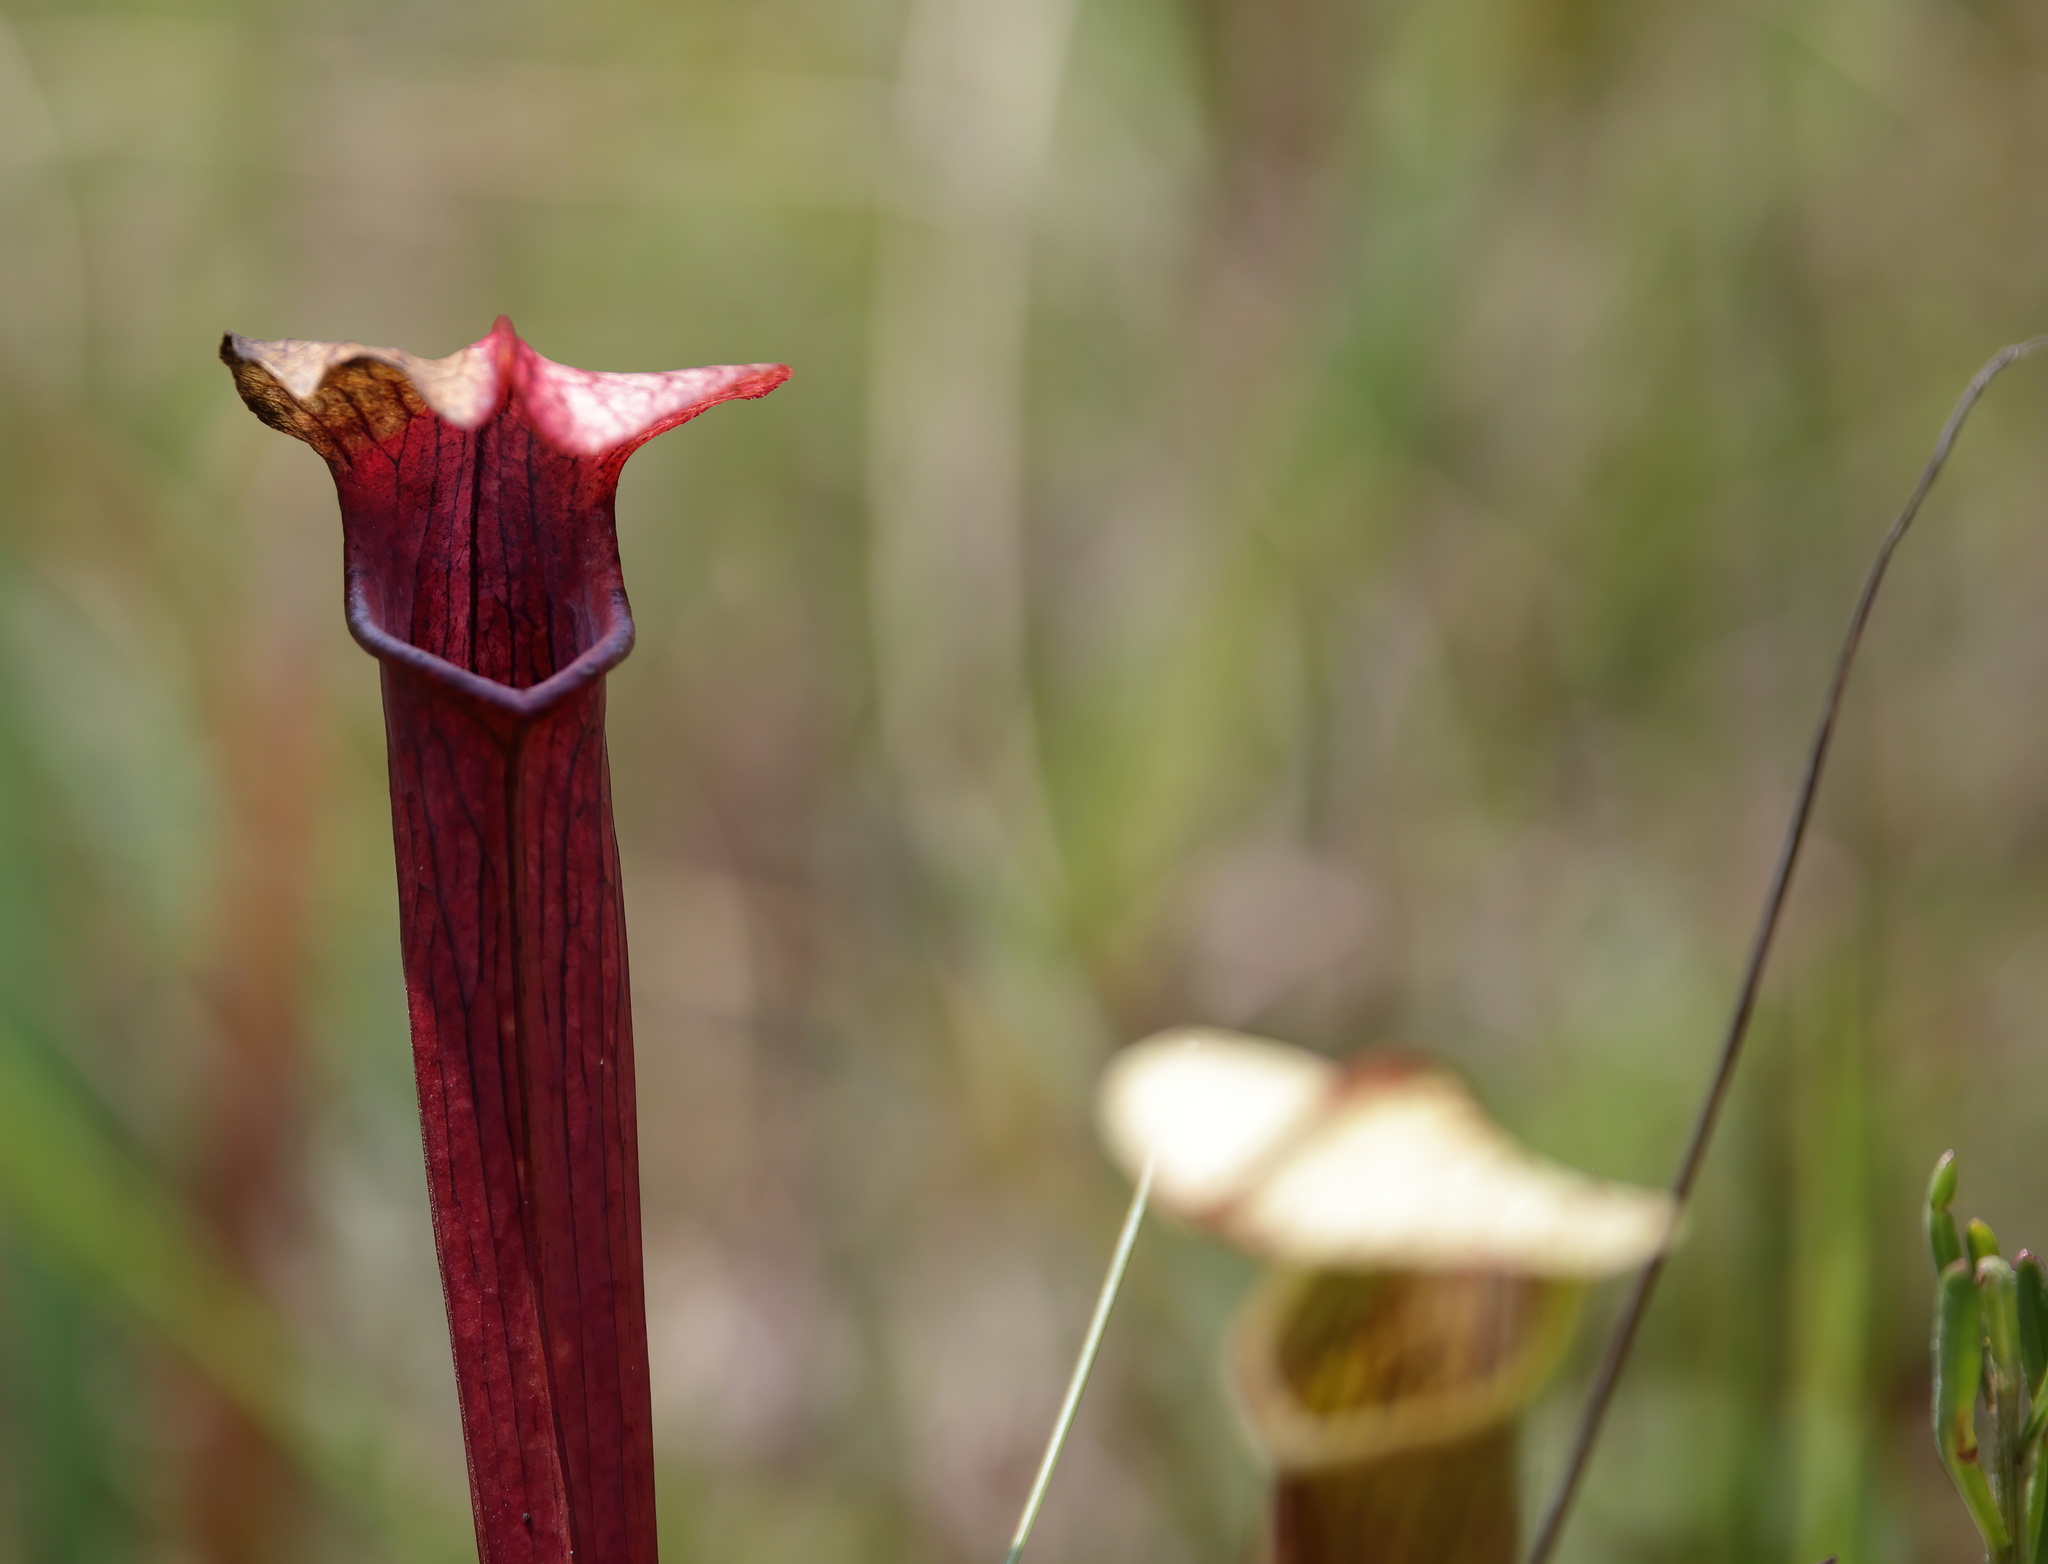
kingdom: Plantae
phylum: Tracheophyta
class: Magnoliopsida
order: Ericales
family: Sarraceniaceae
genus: Sarracenia
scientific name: Sarracenia areolata
